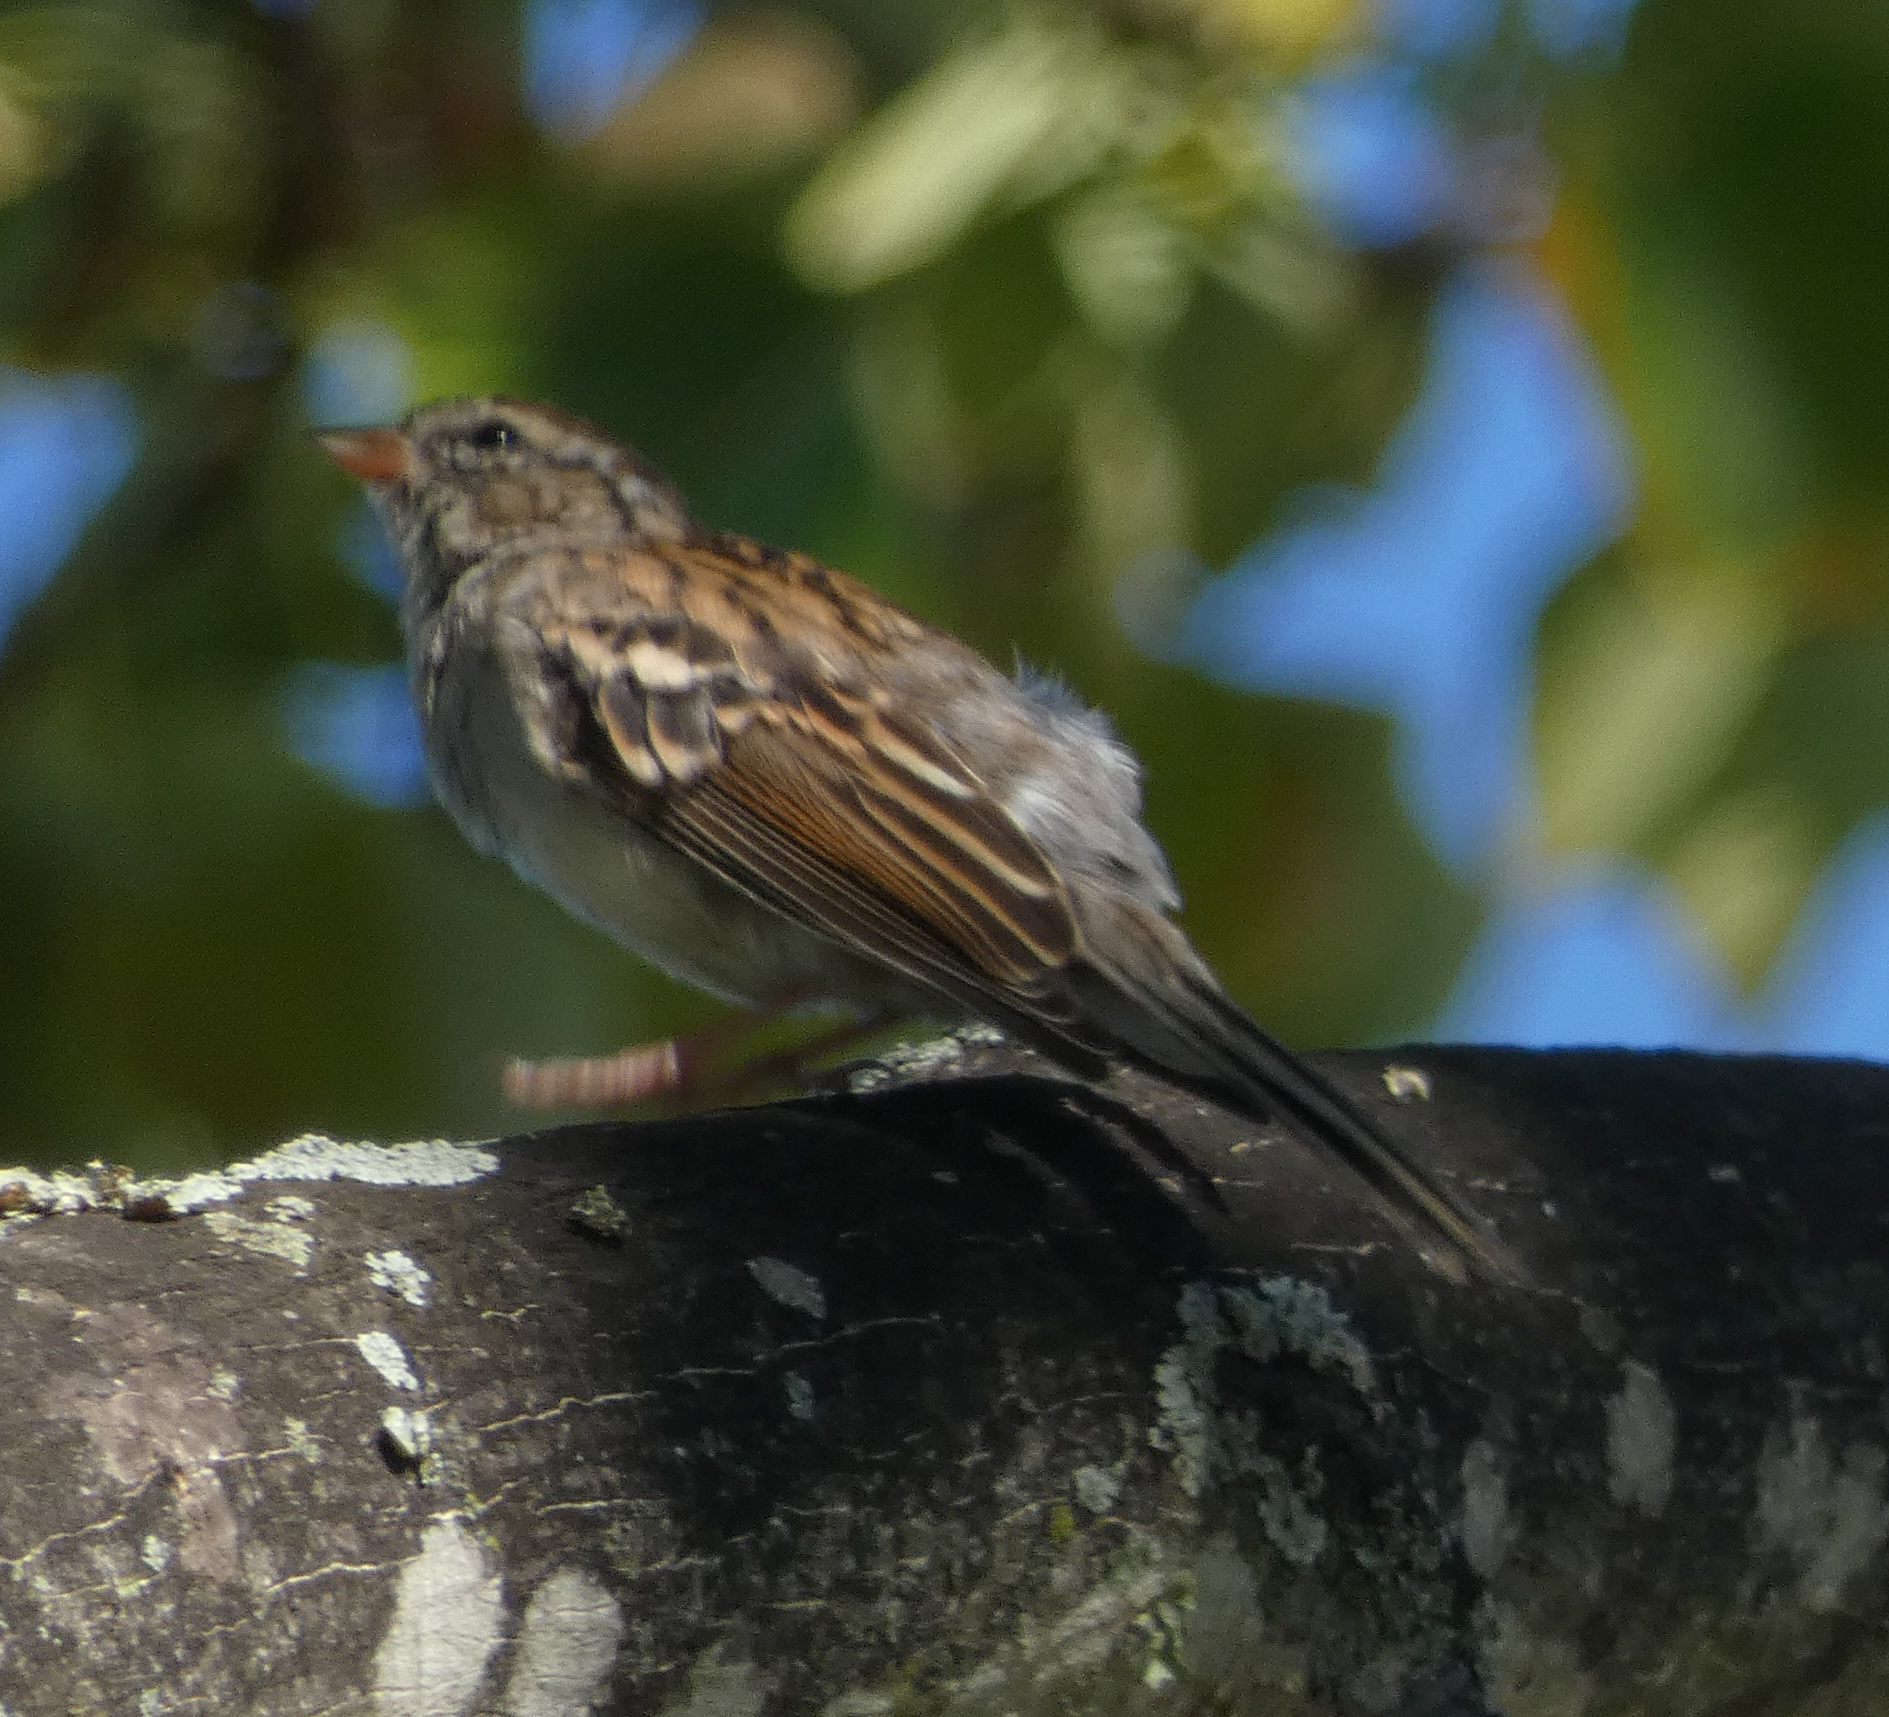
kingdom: Animalia
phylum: Chordata
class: Aves
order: Passeriformes
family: Passerellidae
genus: Spizella
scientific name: Spizella passerina
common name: Chipping sparrow
